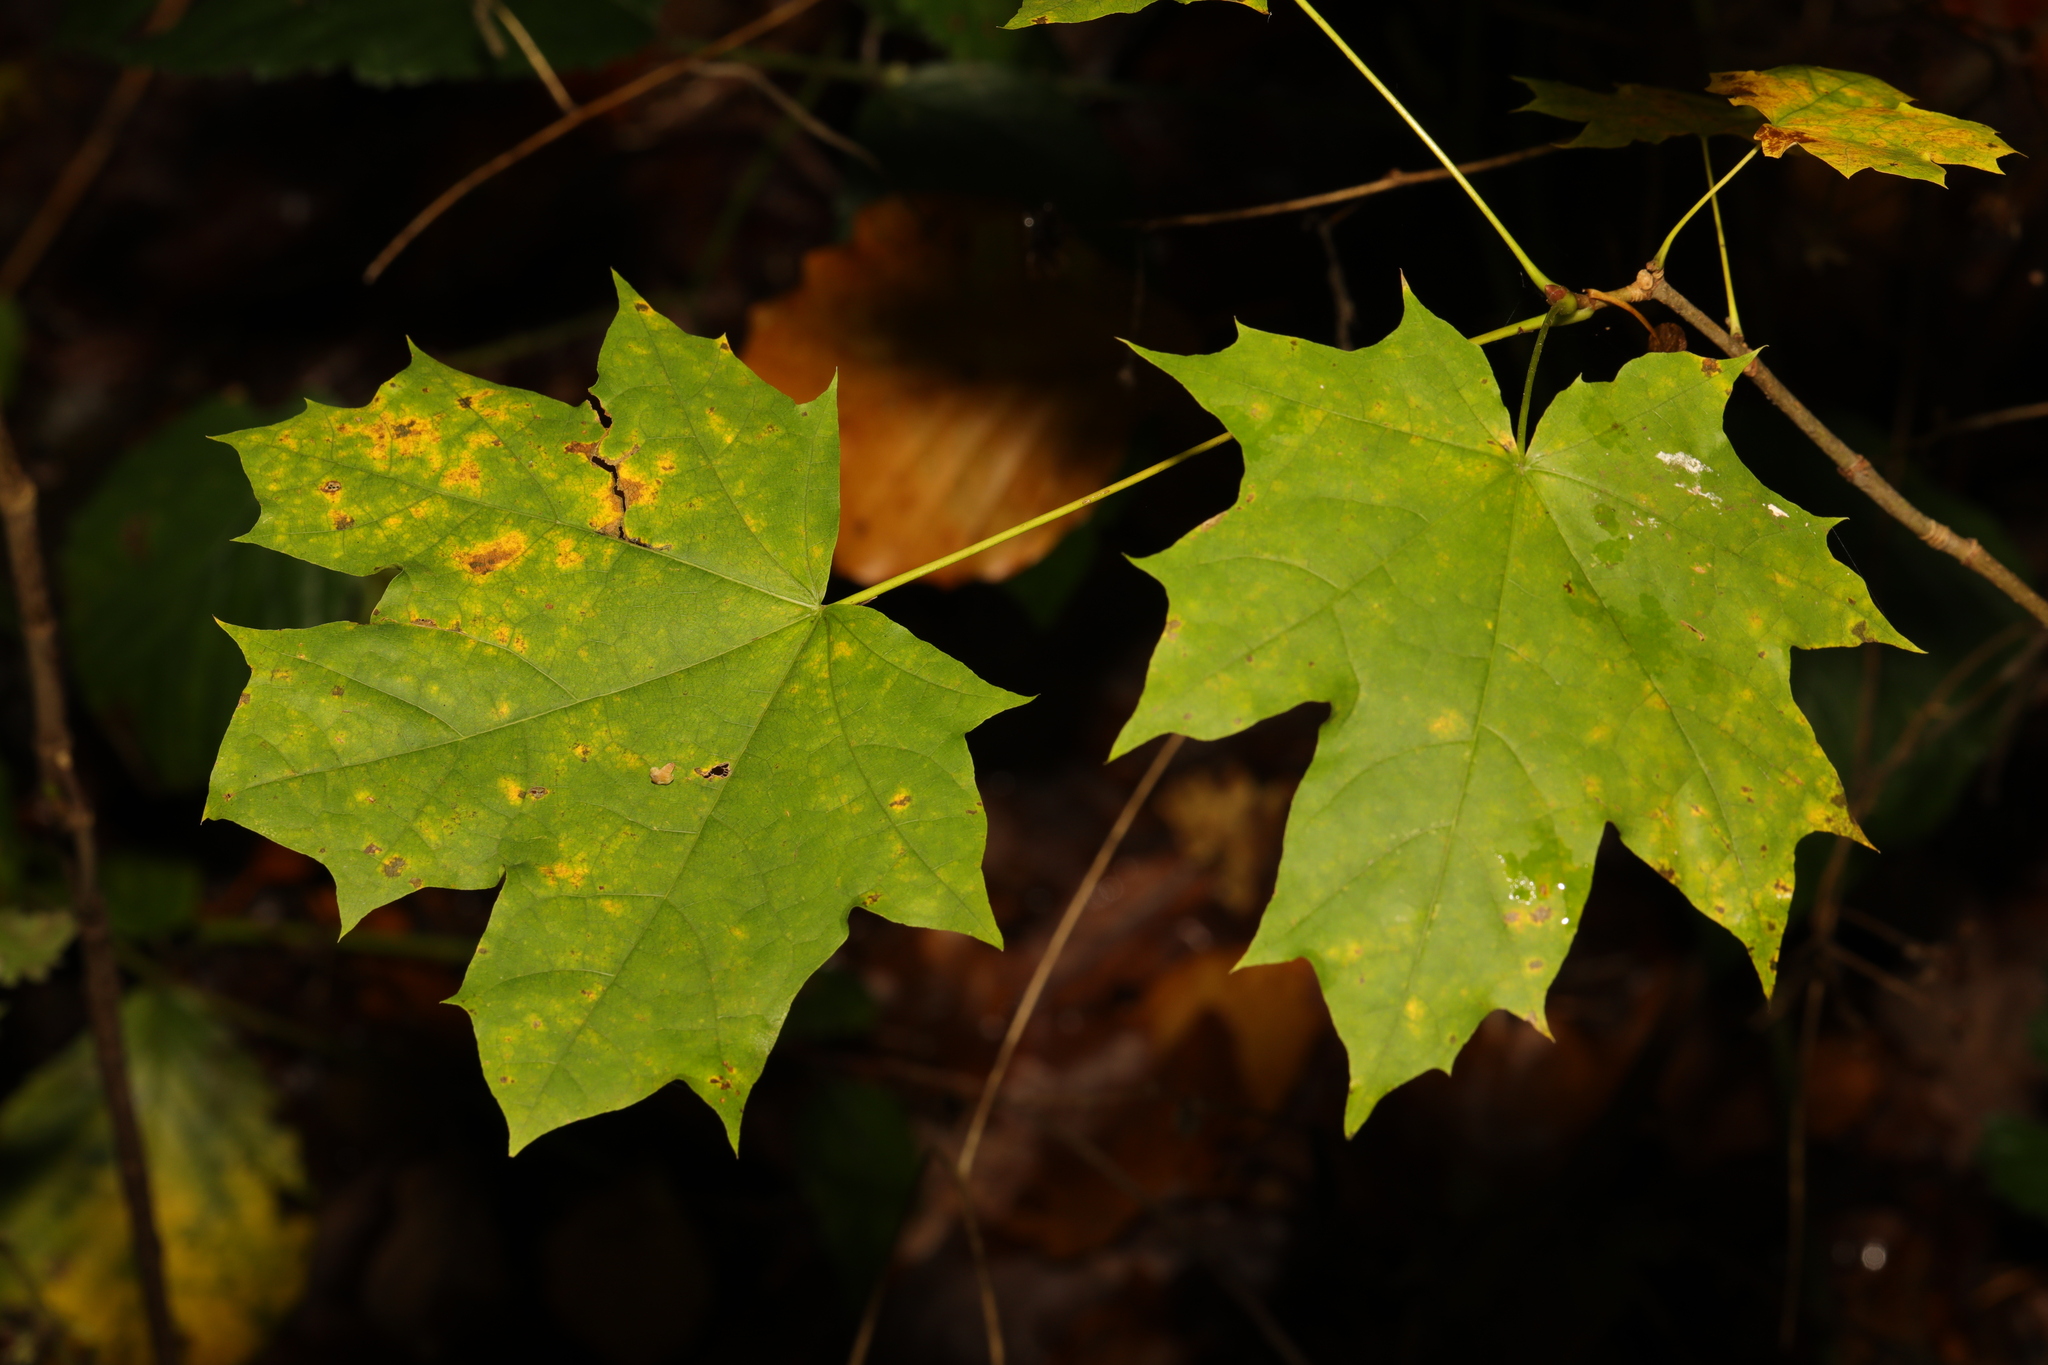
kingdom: Plantae
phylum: Tracheophyta
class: Magnoliopsida
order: Sapindales
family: Sapindaceae
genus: Acer
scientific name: Acer platanoides
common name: Norway maple
